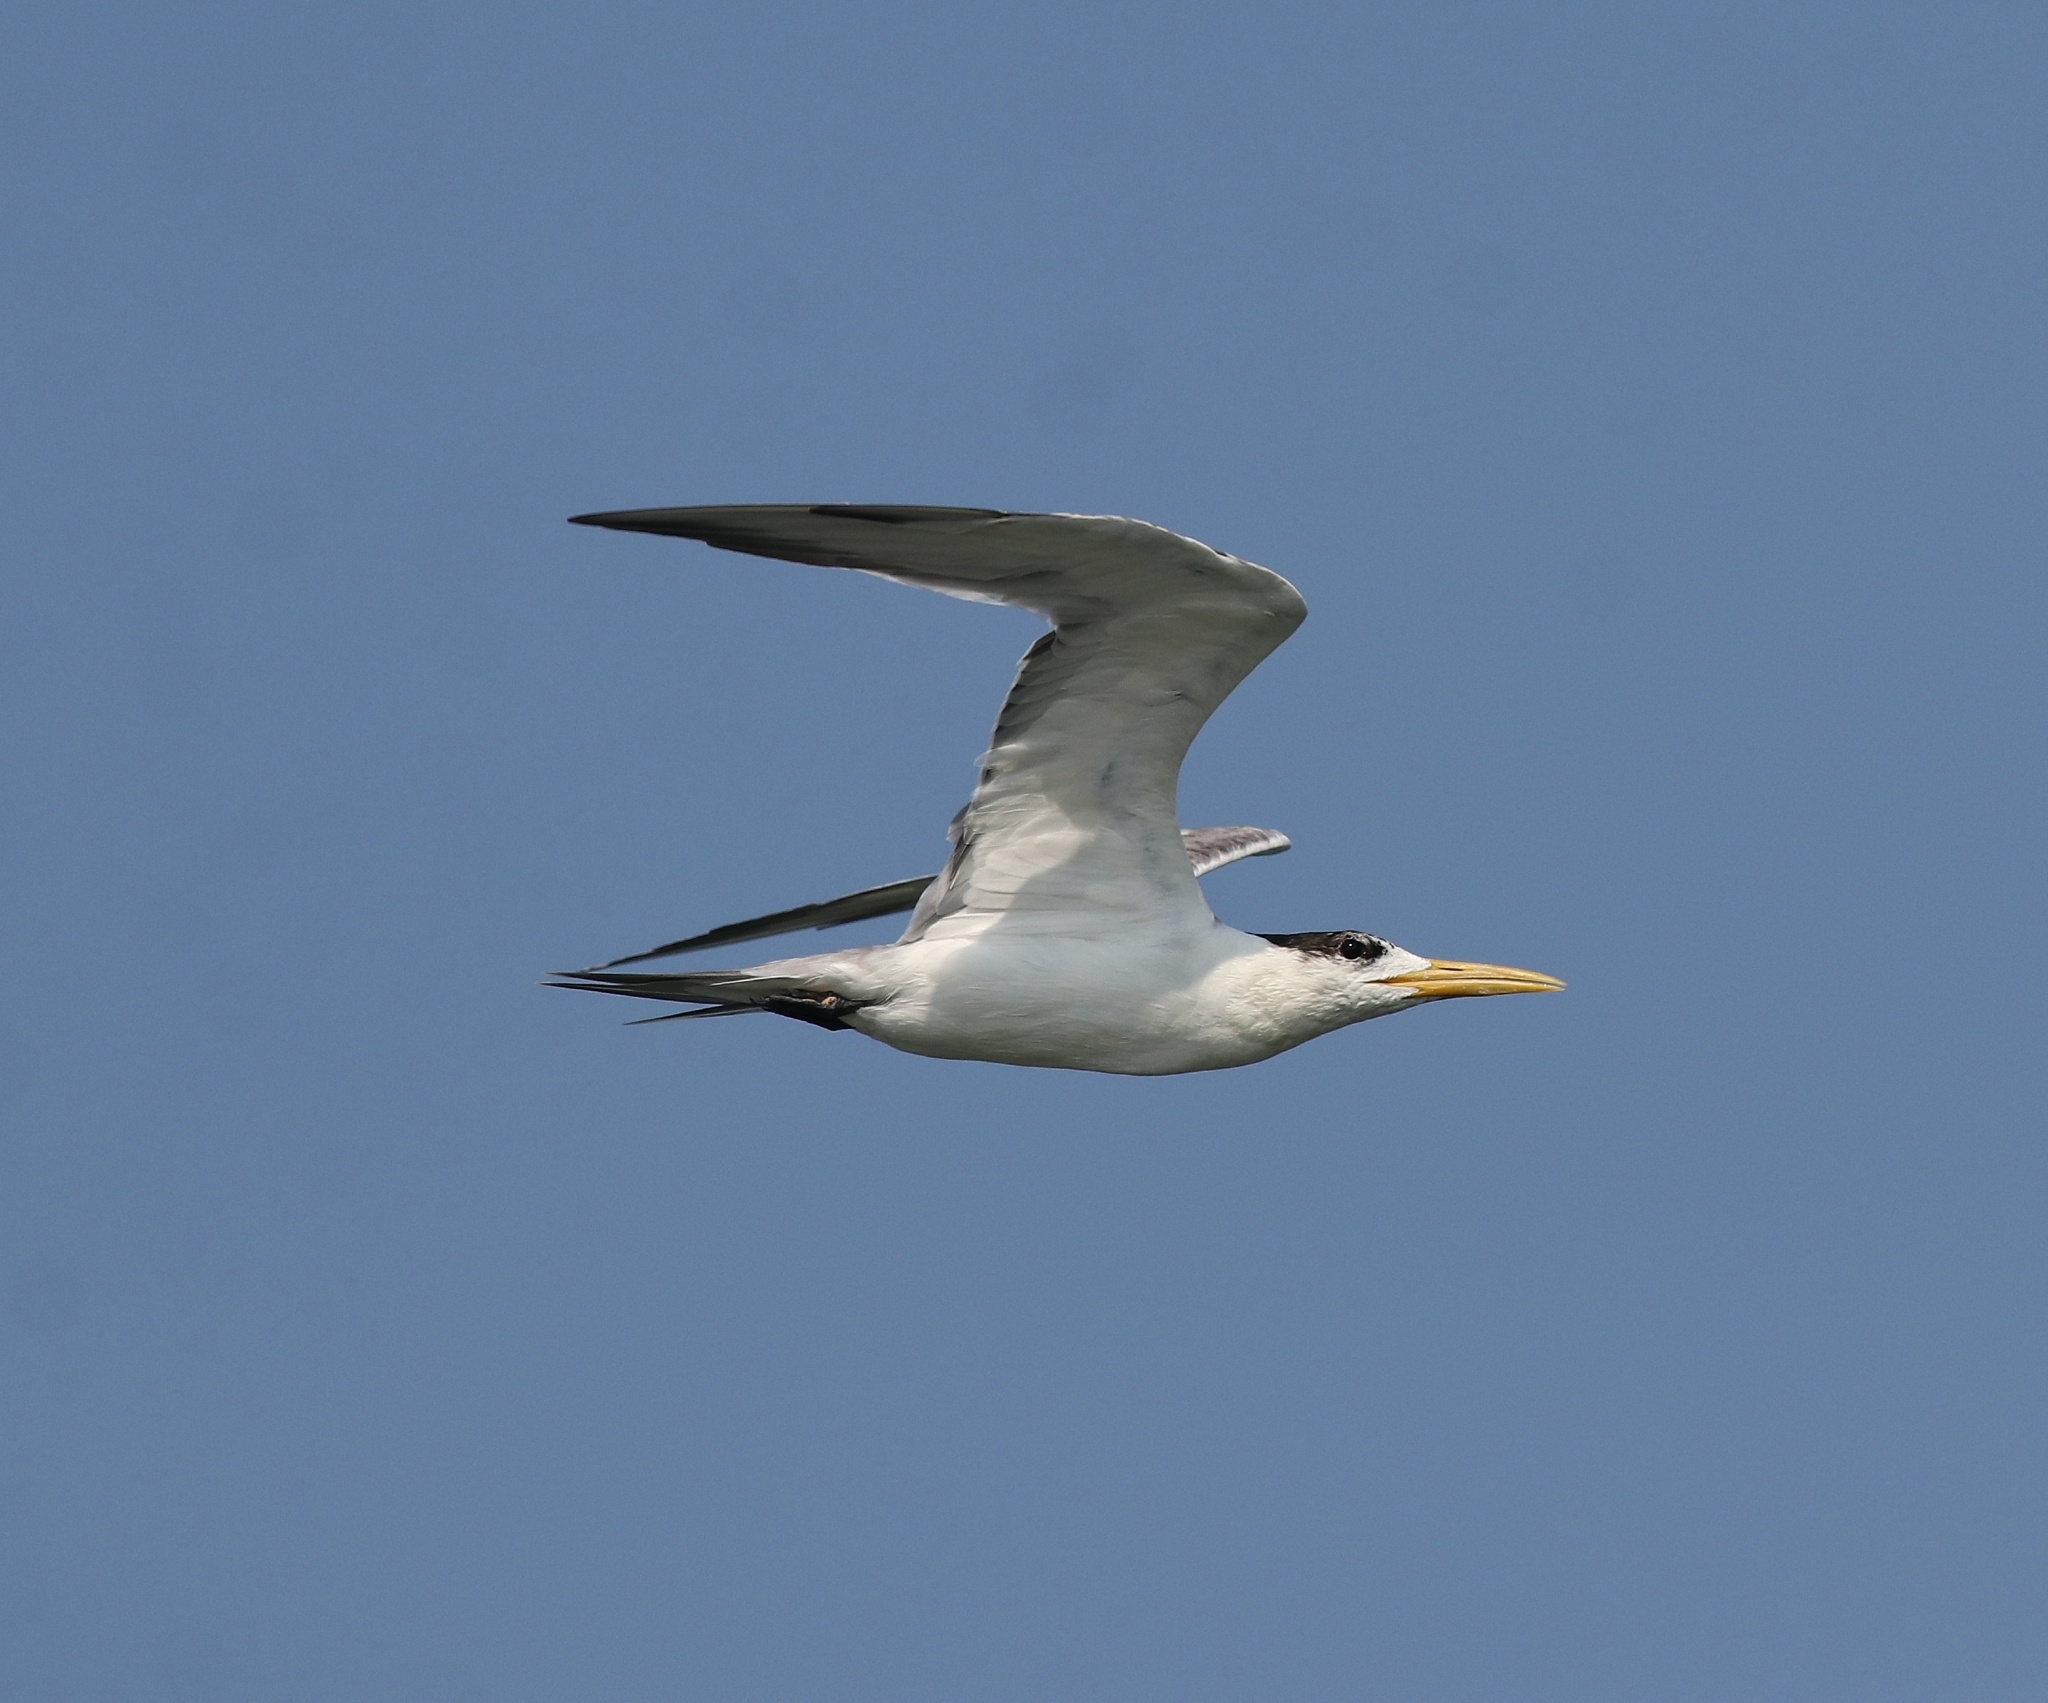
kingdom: Animalia
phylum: Chordata
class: Aves
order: Charadriiformes
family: Laridae
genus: Thalasseus
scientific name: Thalasseus bergii
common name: Greater crested tern
